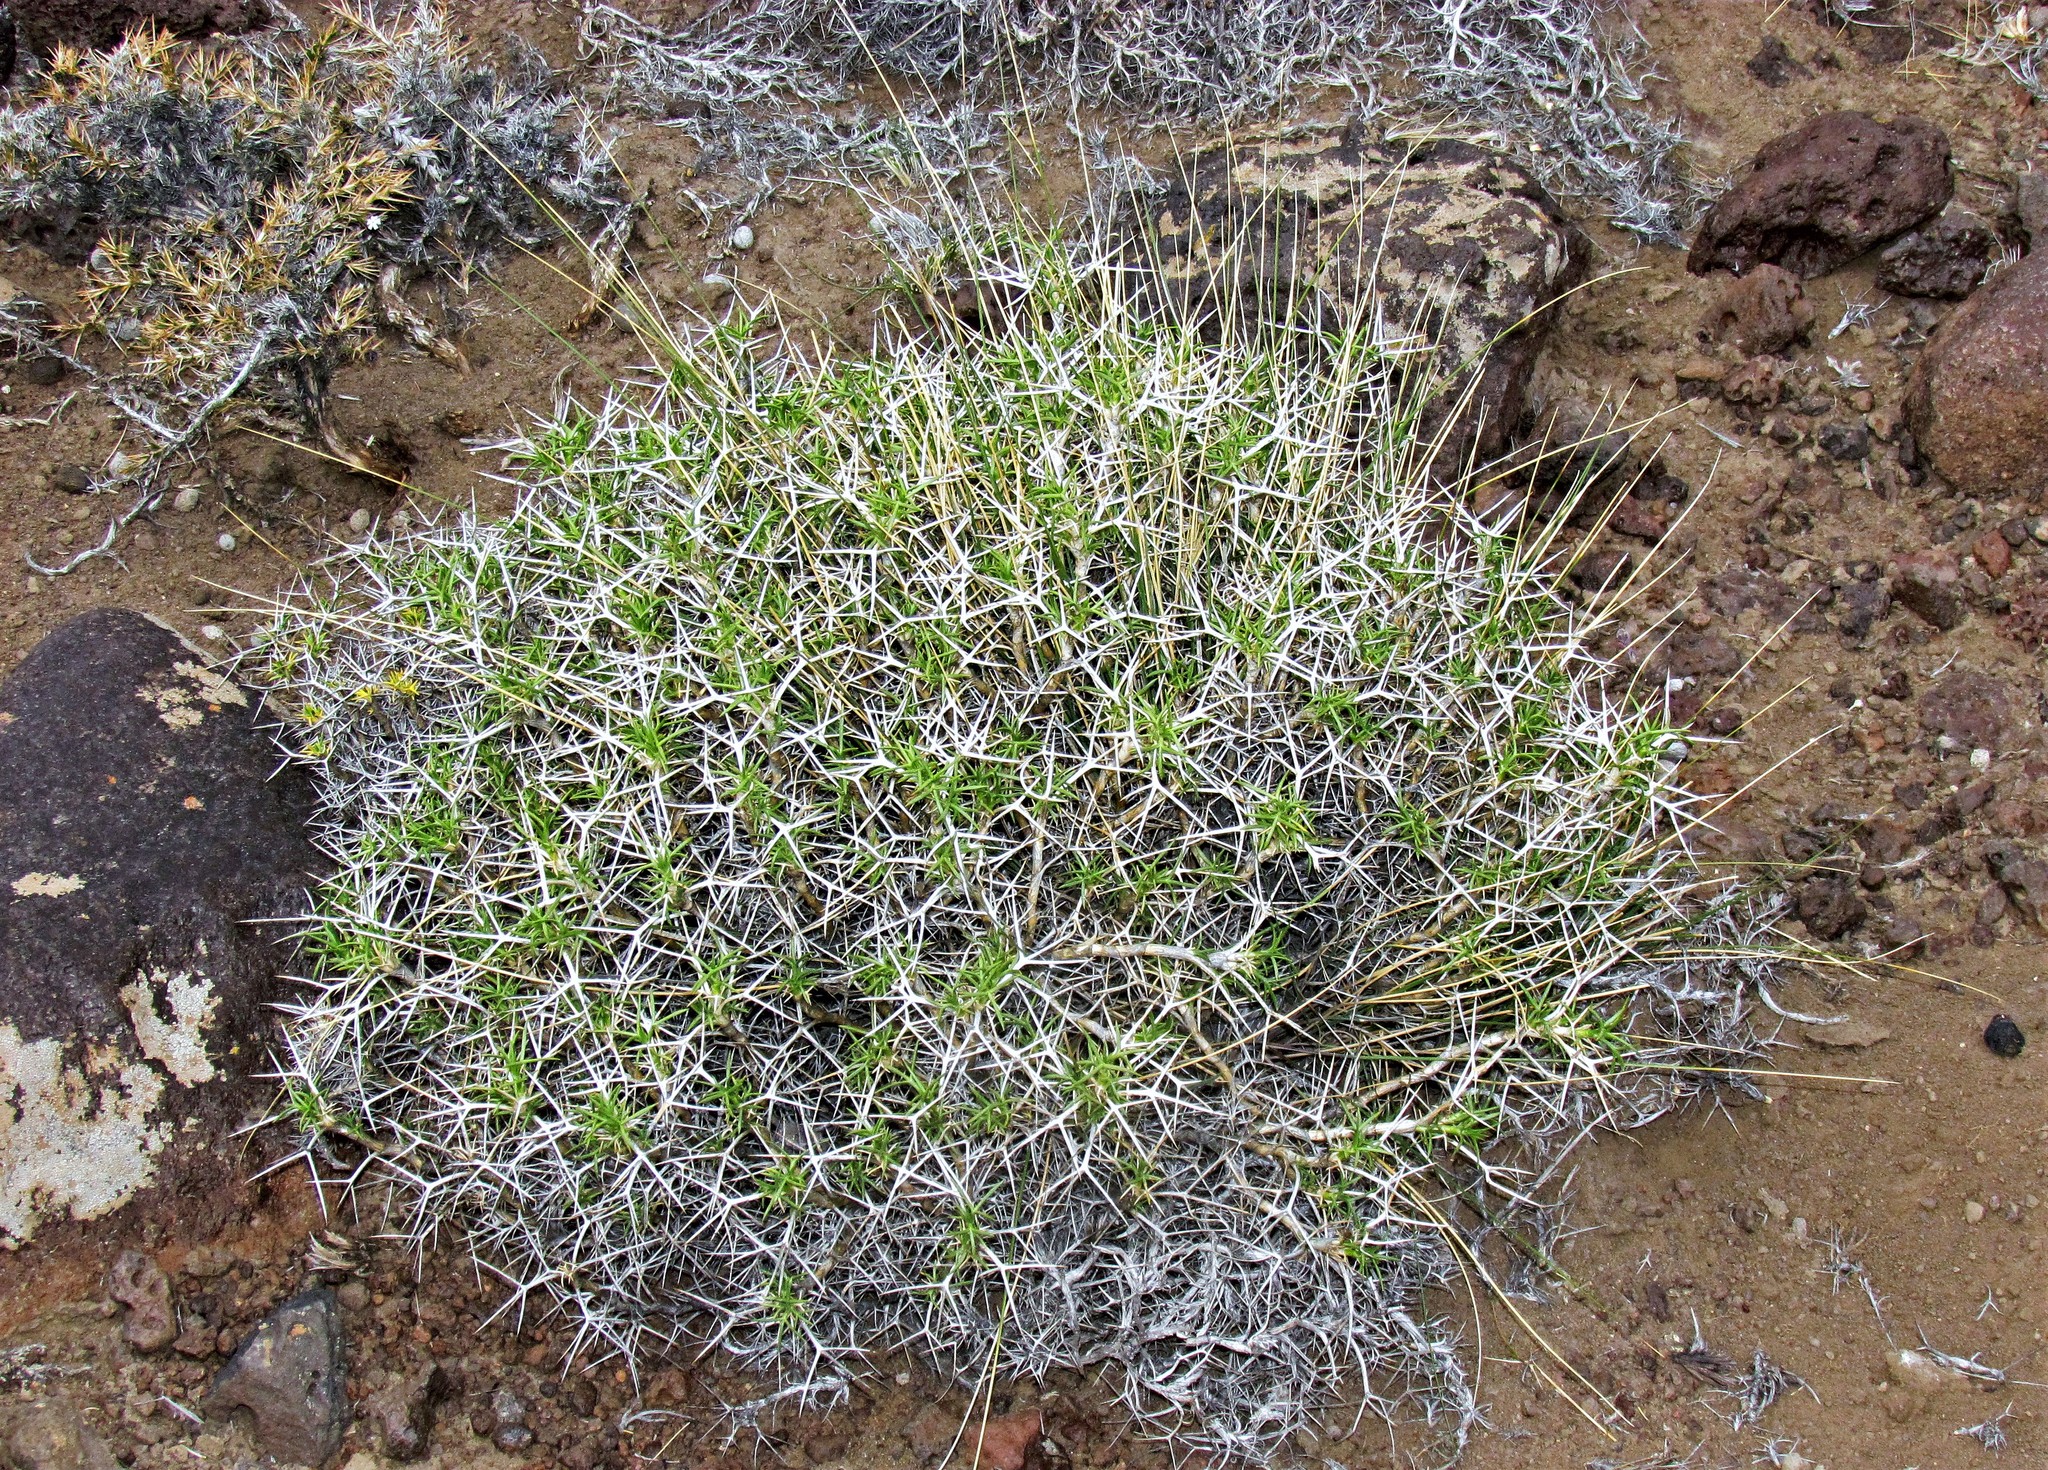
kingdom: Plantae
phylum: Tracheophyta
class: Magnoliopsida
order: Apiales
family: Apiaceae
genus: Azorella
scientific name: Azorella prolifera
